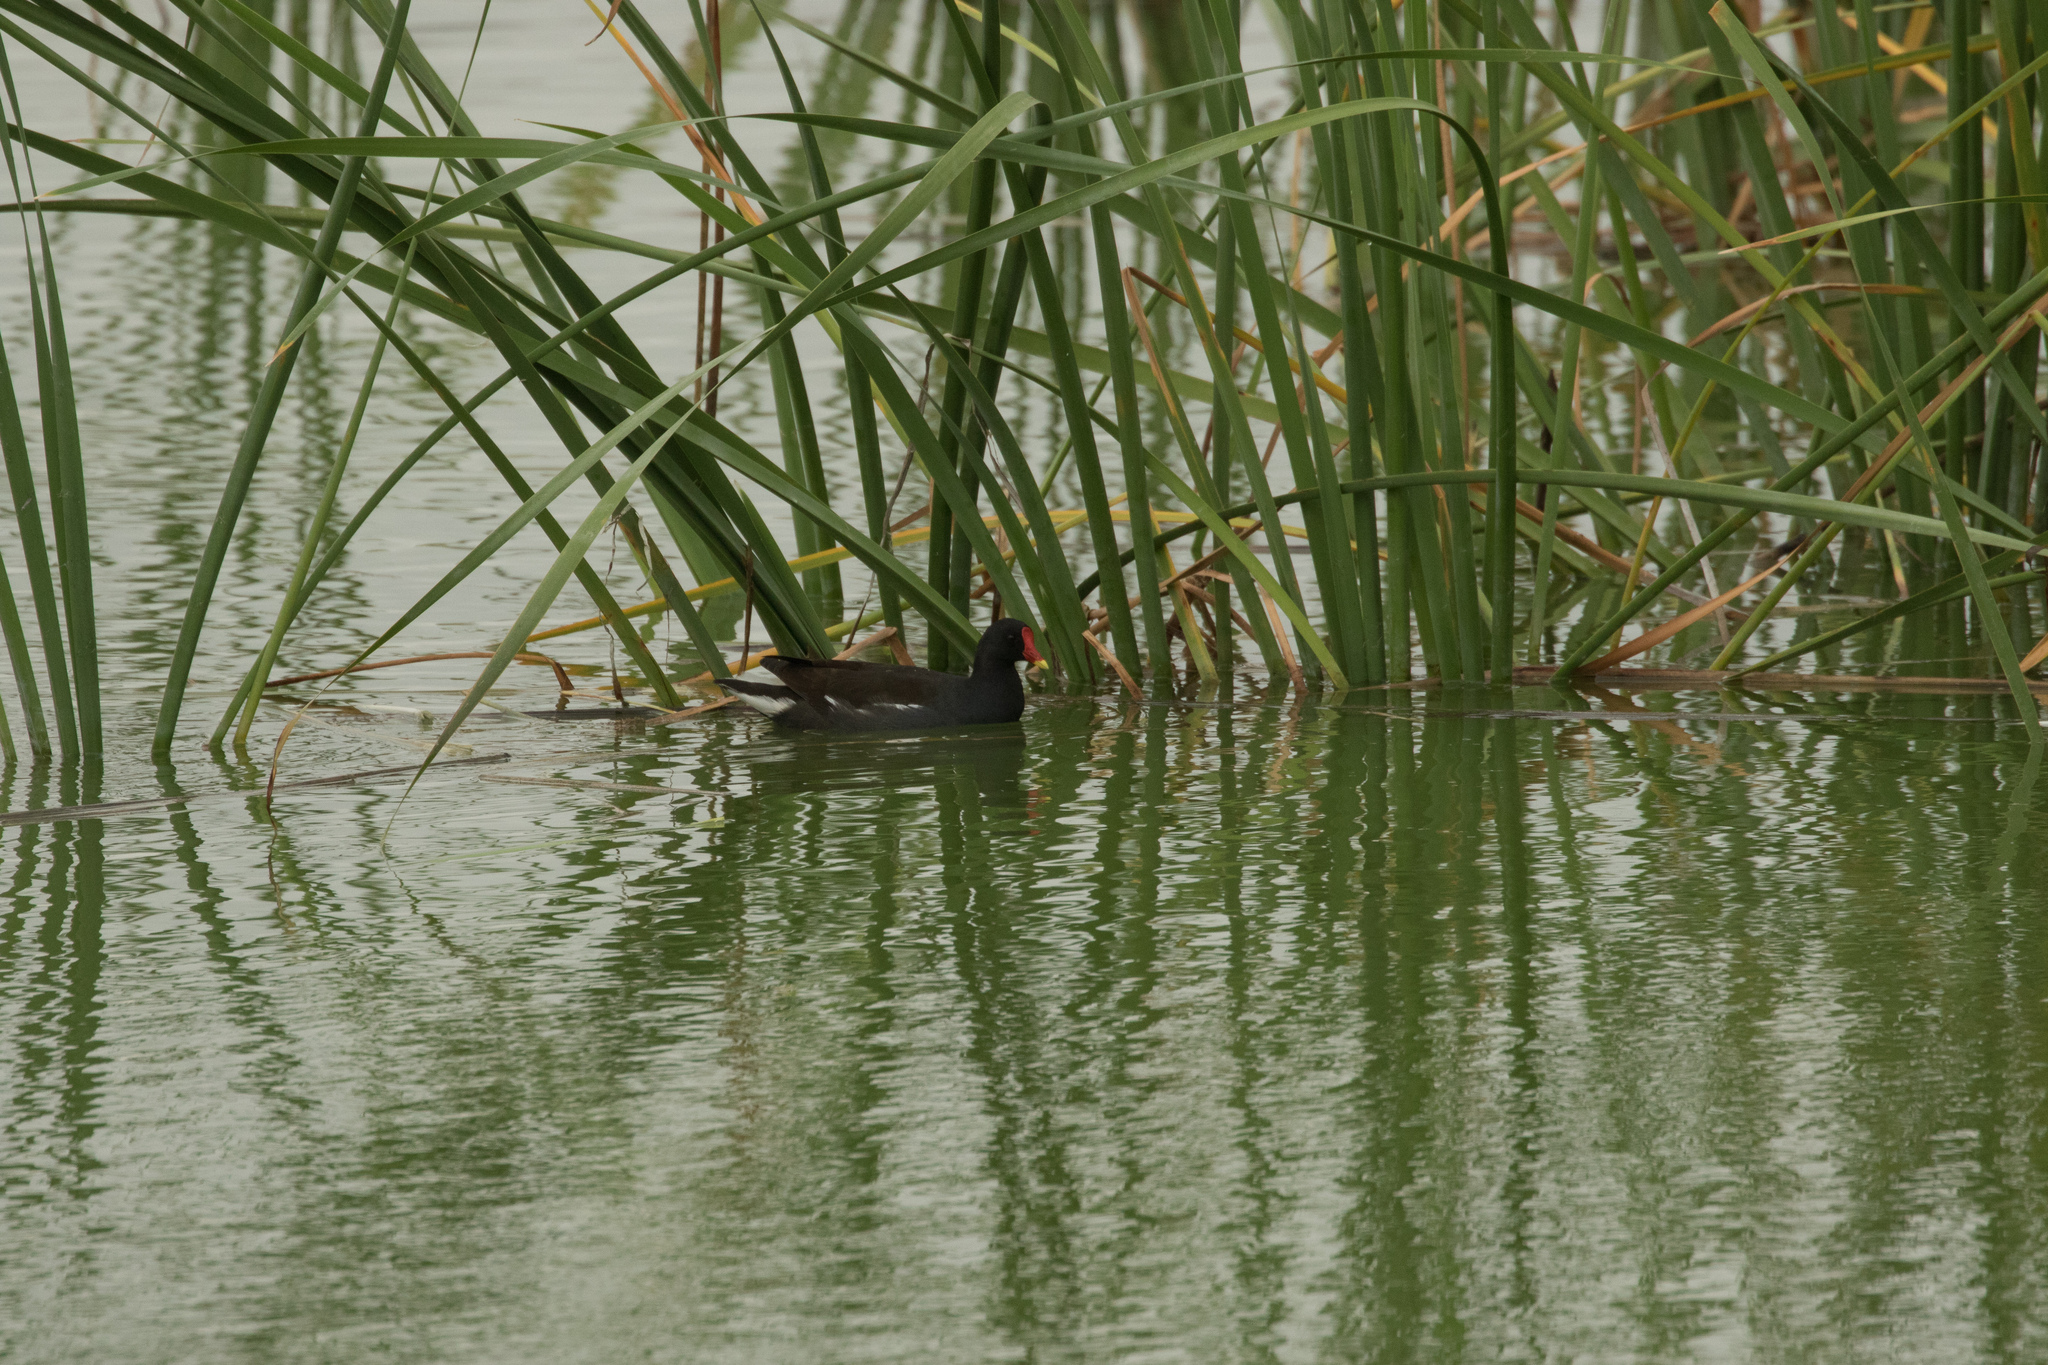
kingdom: Animalia
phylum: Chordata
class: Aves
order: Gruiformes
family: Rallidae
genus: Gallinula
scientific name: Gallinula chloropus
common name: Common moorhen
